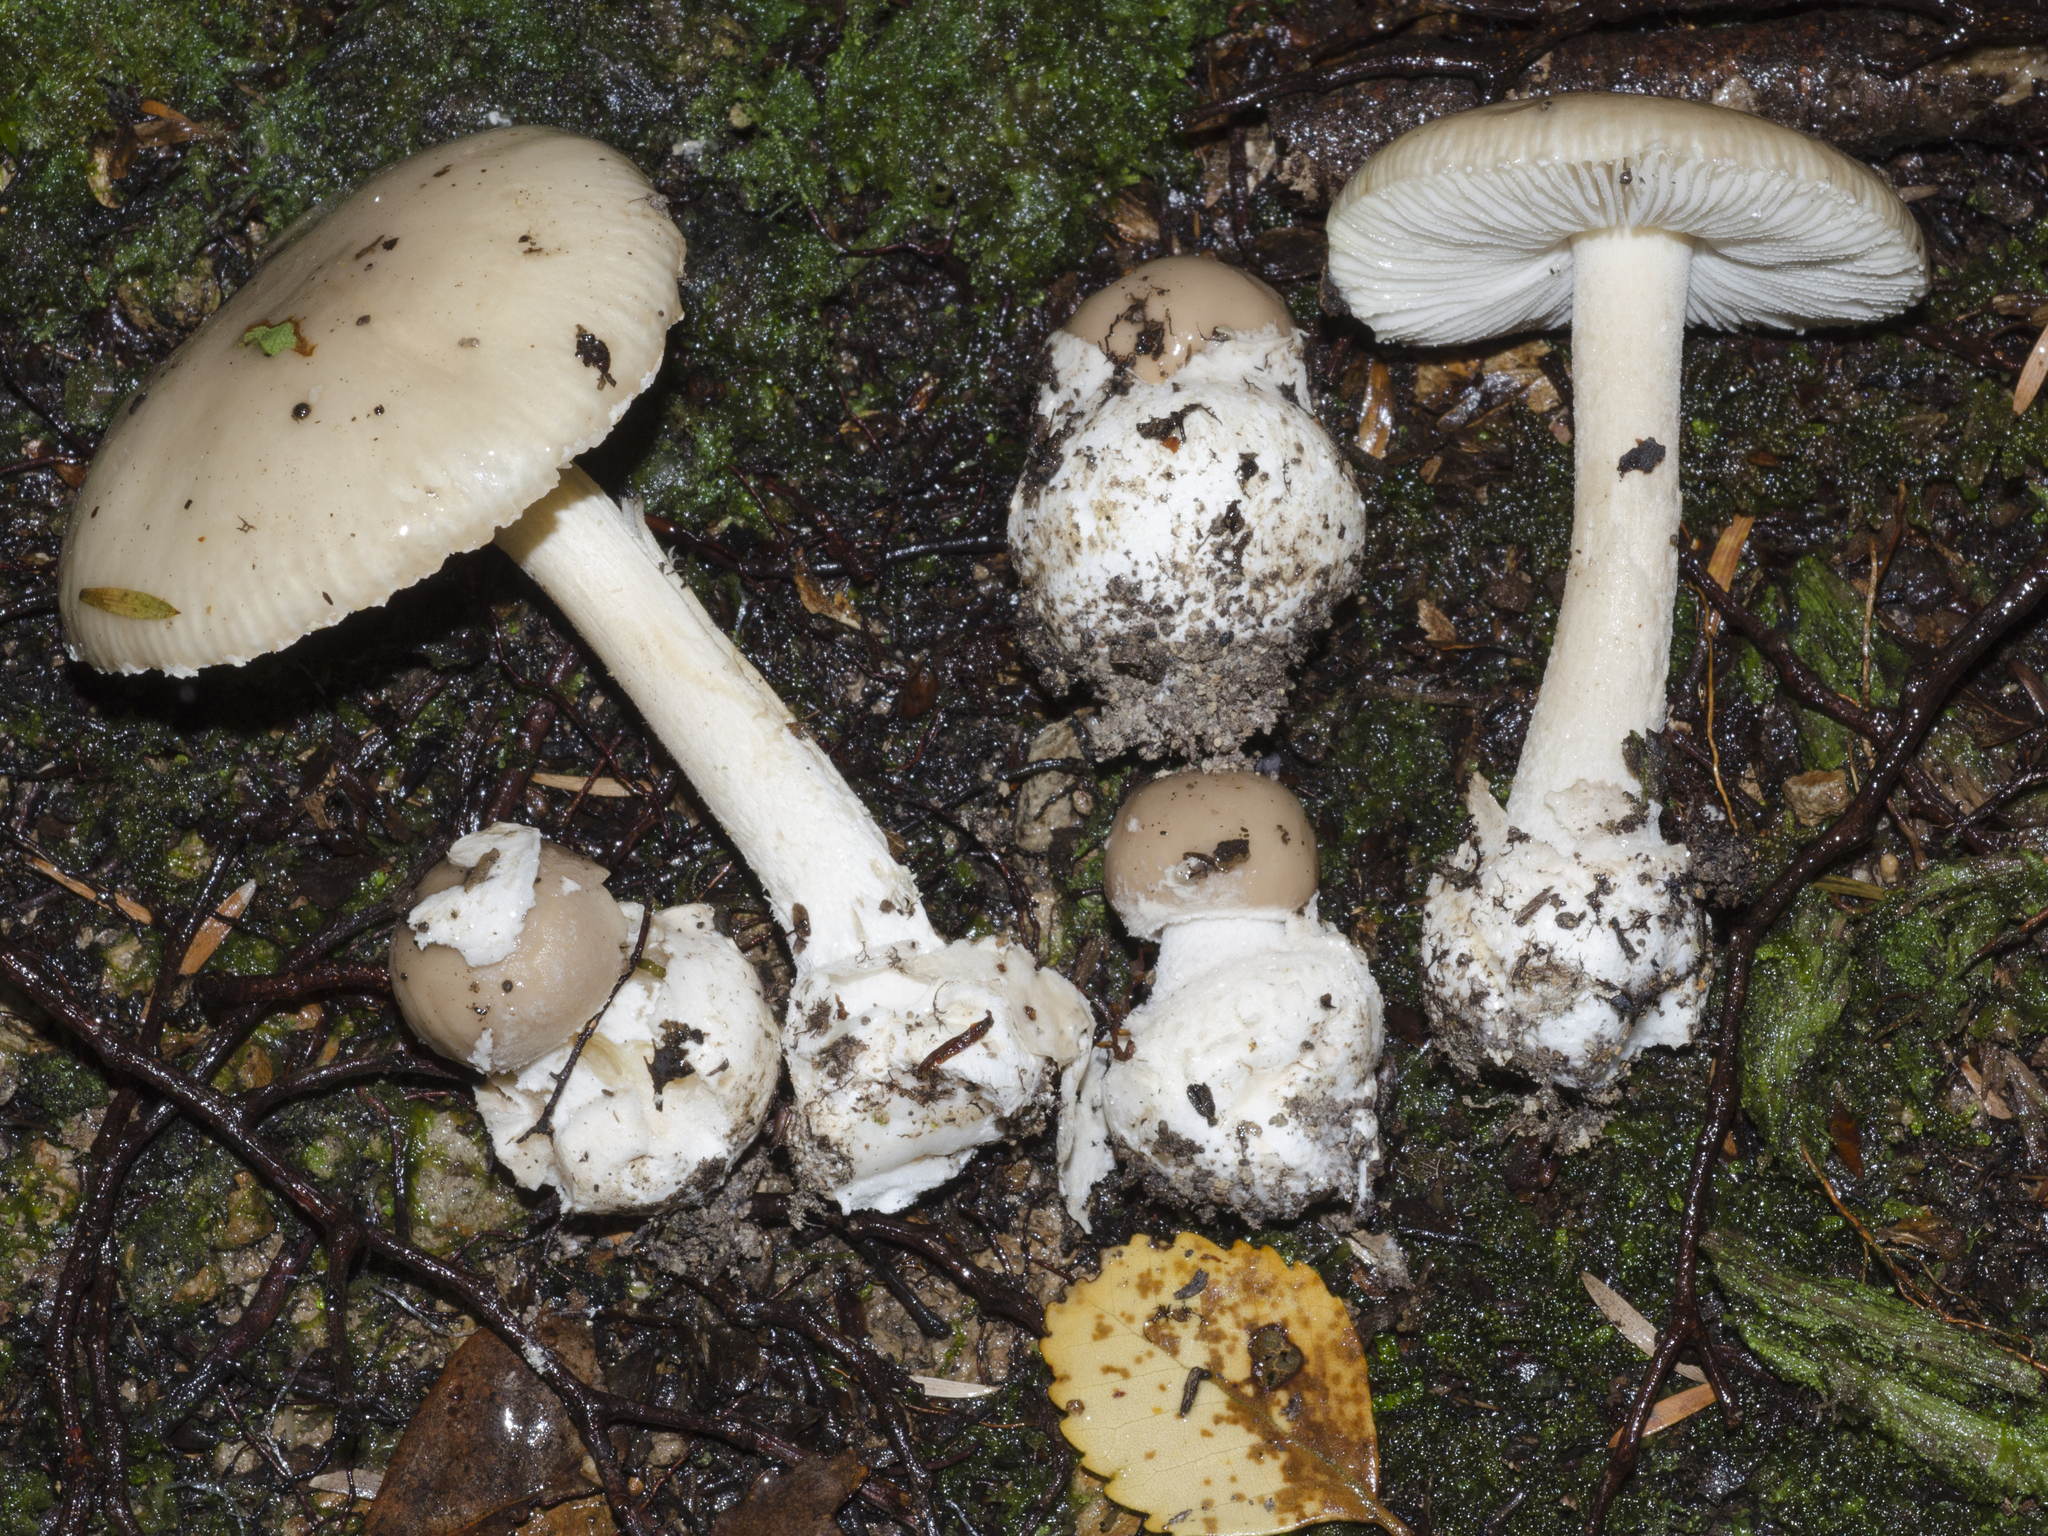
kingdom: Fungi
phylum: Basidiomycota
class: Agaricomycetes
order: Agaricales
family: Amanitaceae
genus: Amanita
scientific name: Amanita taiepa
